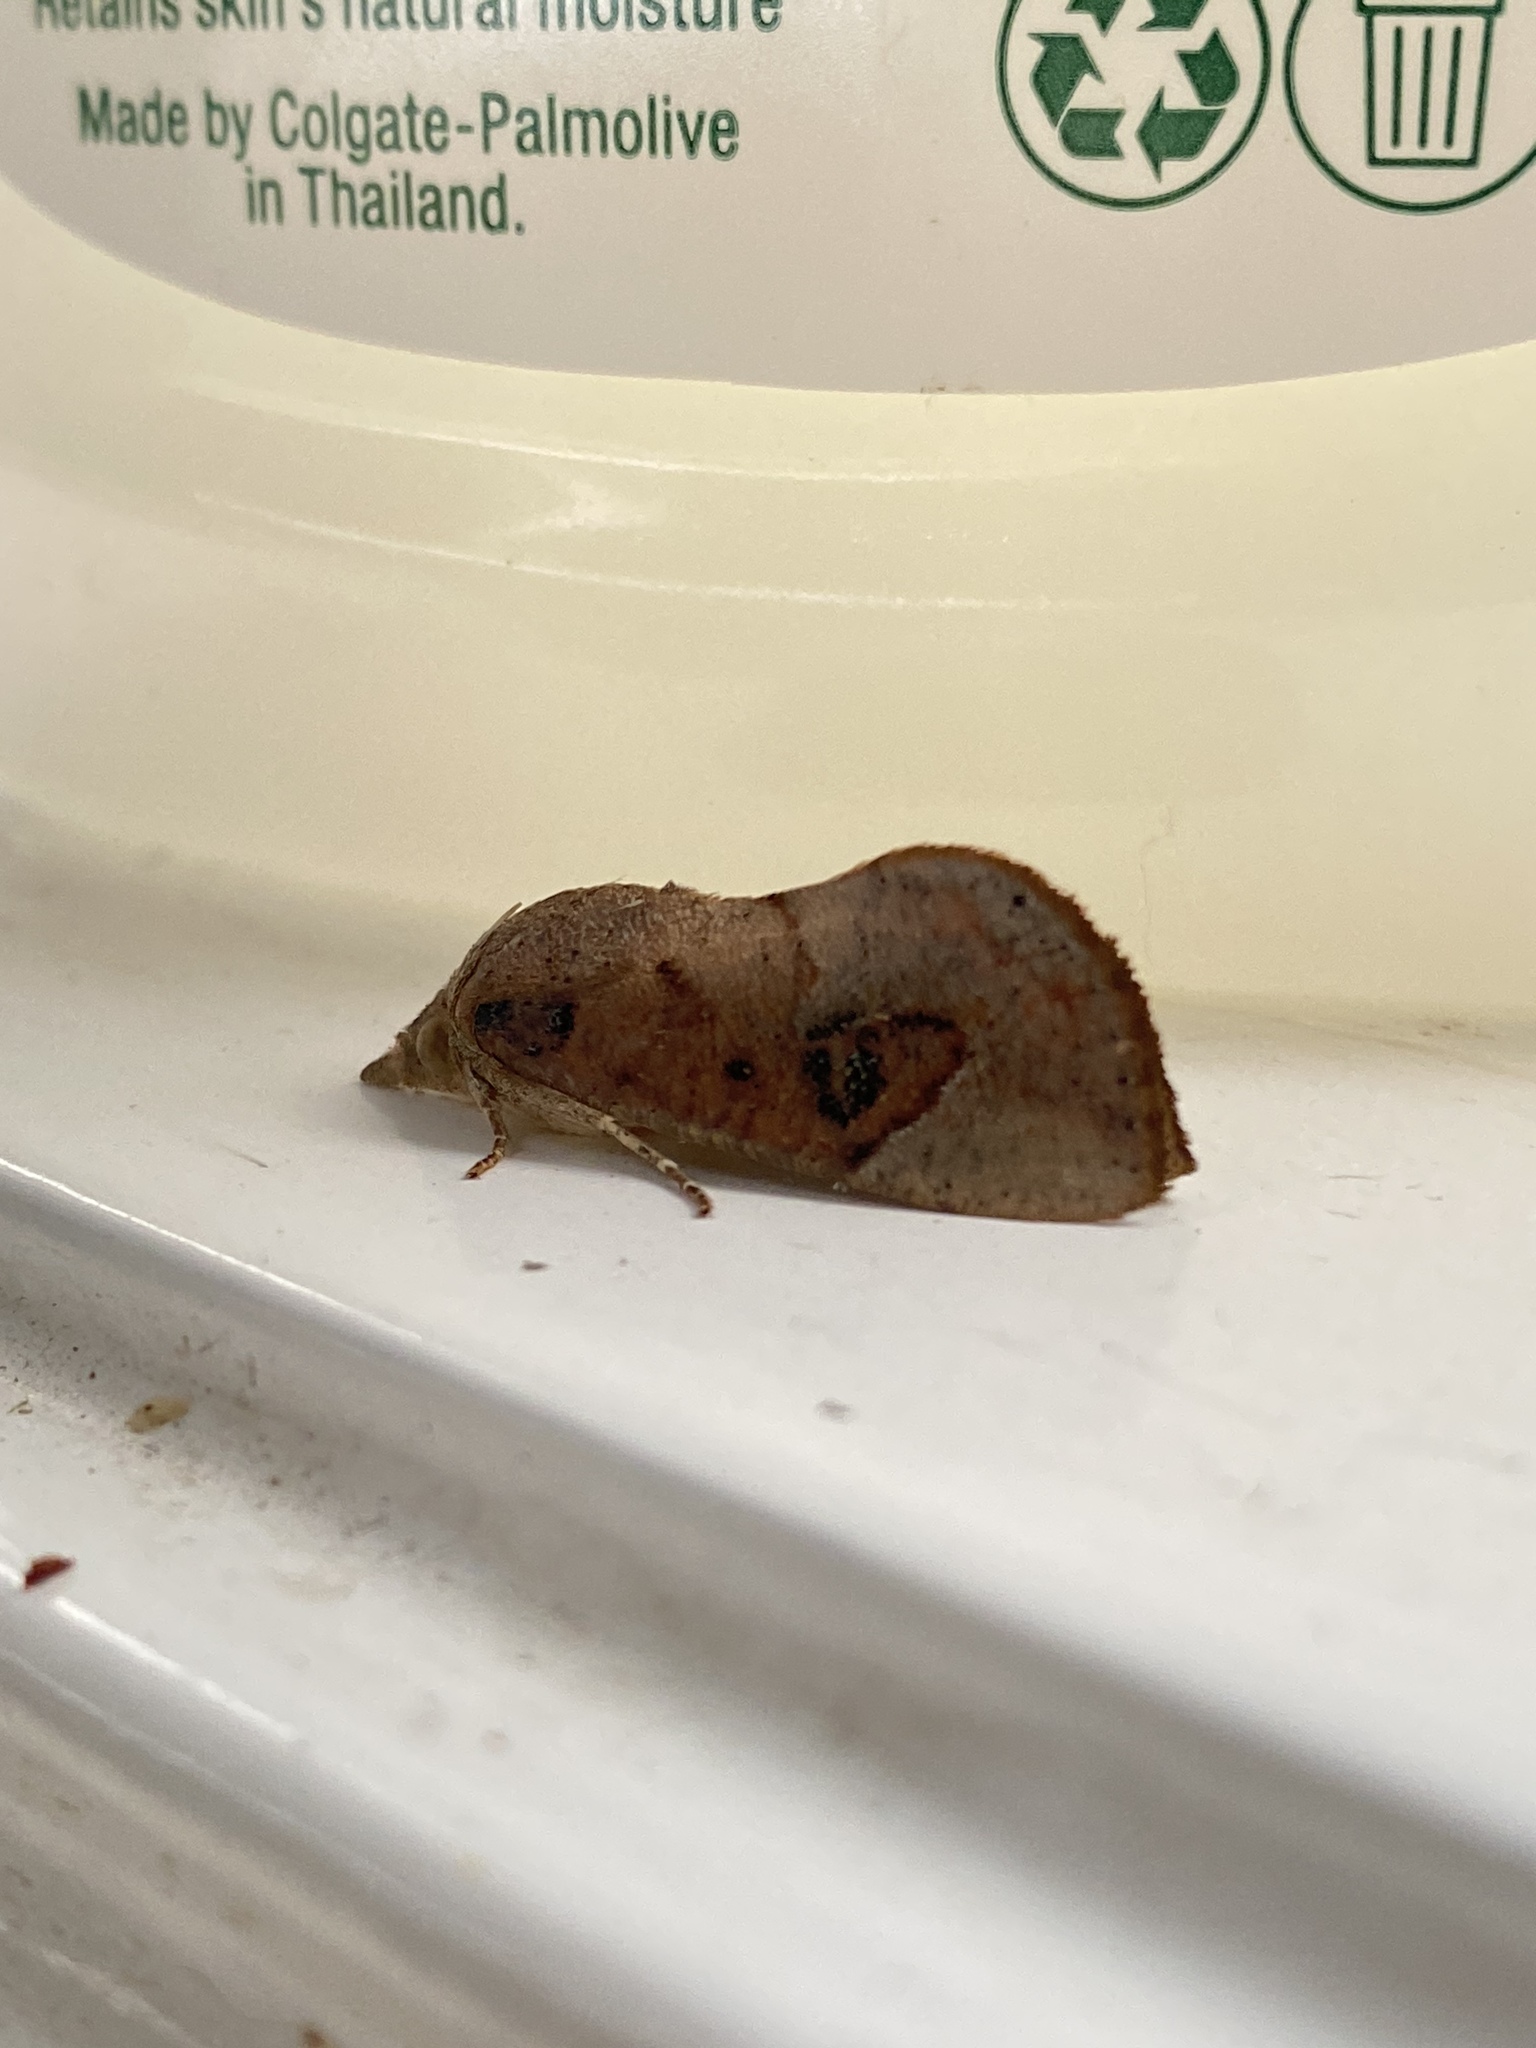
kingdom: Animalia
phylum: Arthropoda
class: Insecta
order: Lepidoptera
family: Erebidae
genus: Hypocala
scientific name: Hypocala guttiventris
